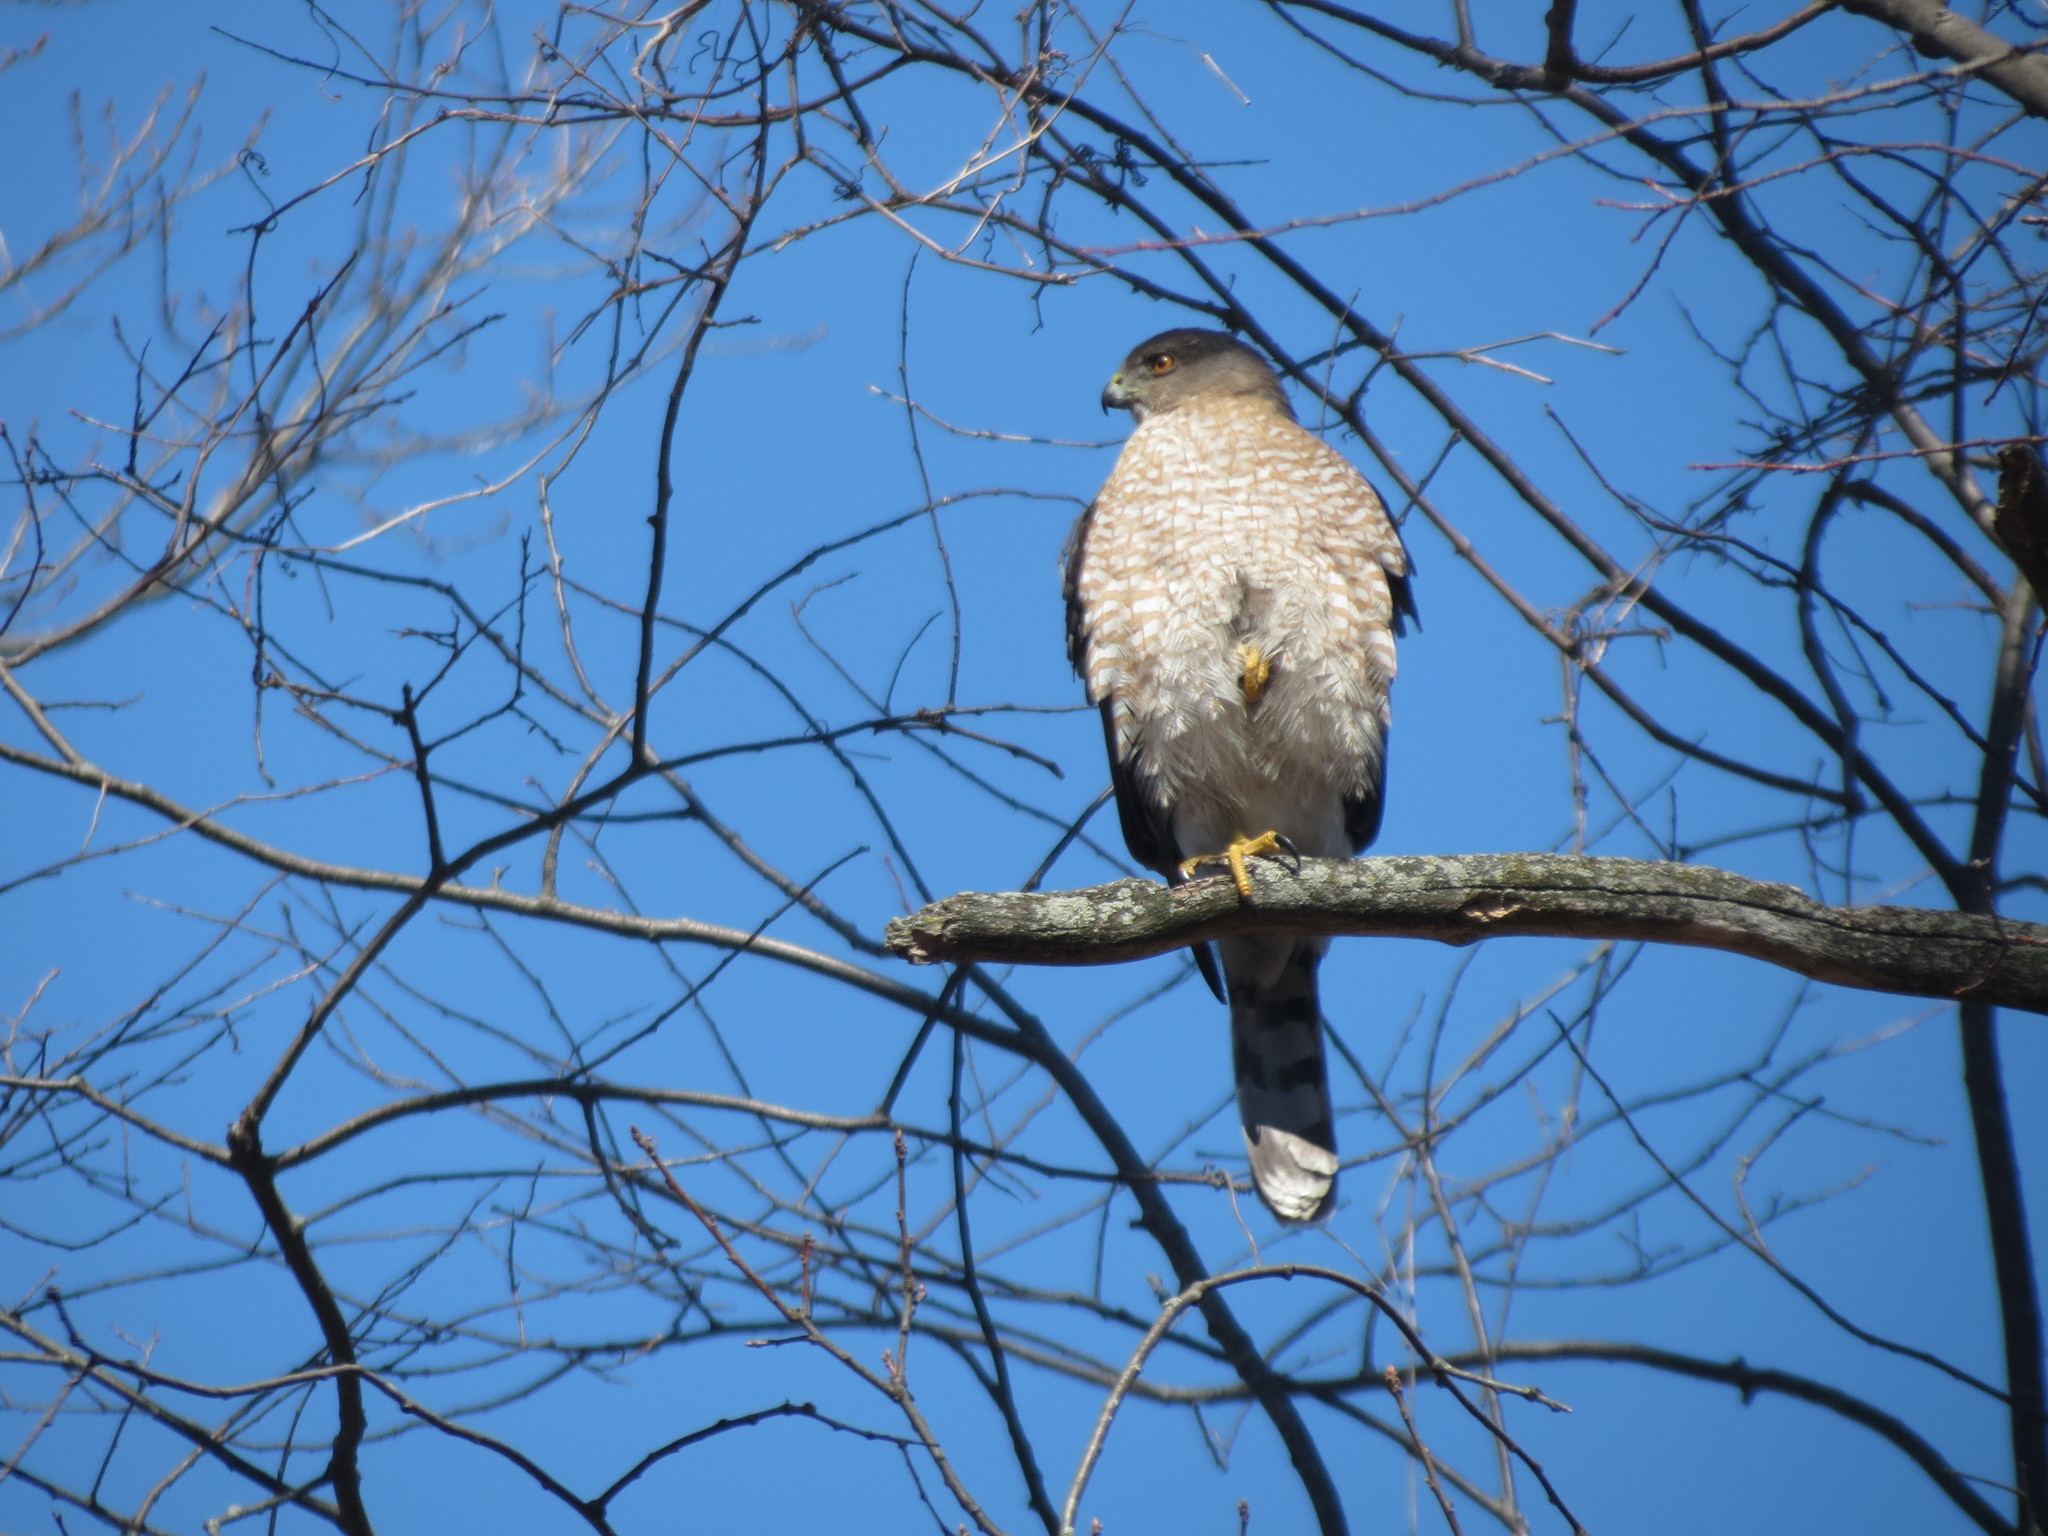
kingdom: Animalia
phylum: Chordata
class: Aves
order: Accipitriformes
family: Accipitridae
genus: Accipiter
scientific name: Accipiter cooperii
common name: Cooper's hawk
